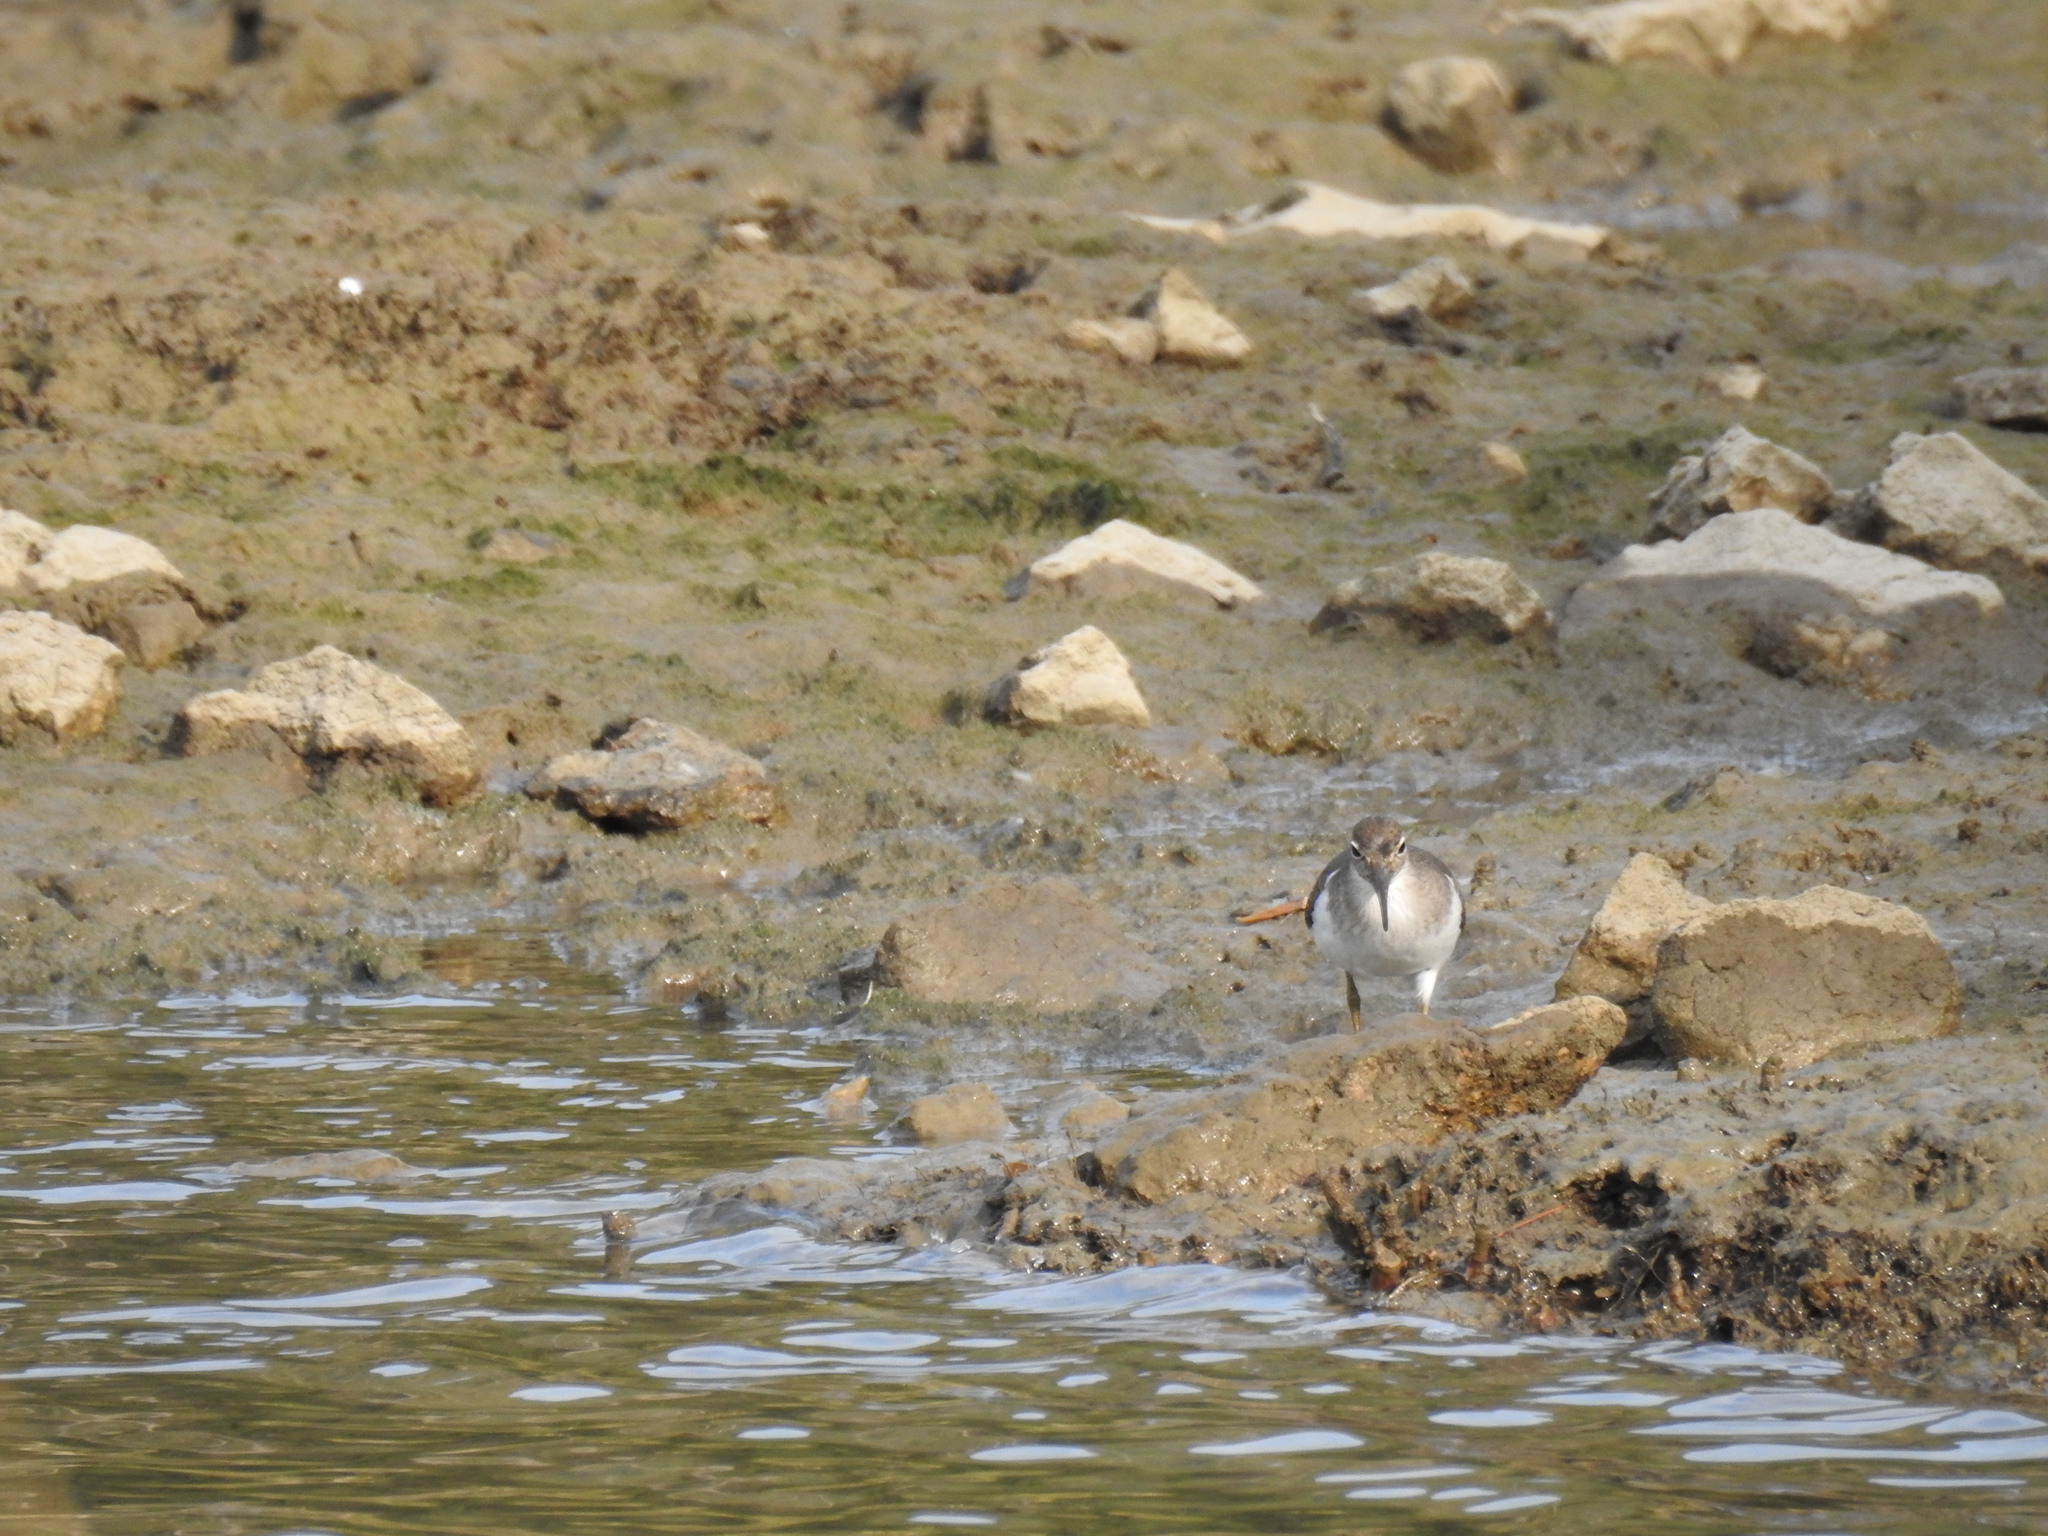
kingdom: Animalia
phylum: Chordata
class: Aves
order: Charadriiformes
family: Scolopacidae
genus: Actitis
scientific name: Actitis hypoleucos
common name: Common sandpiper
